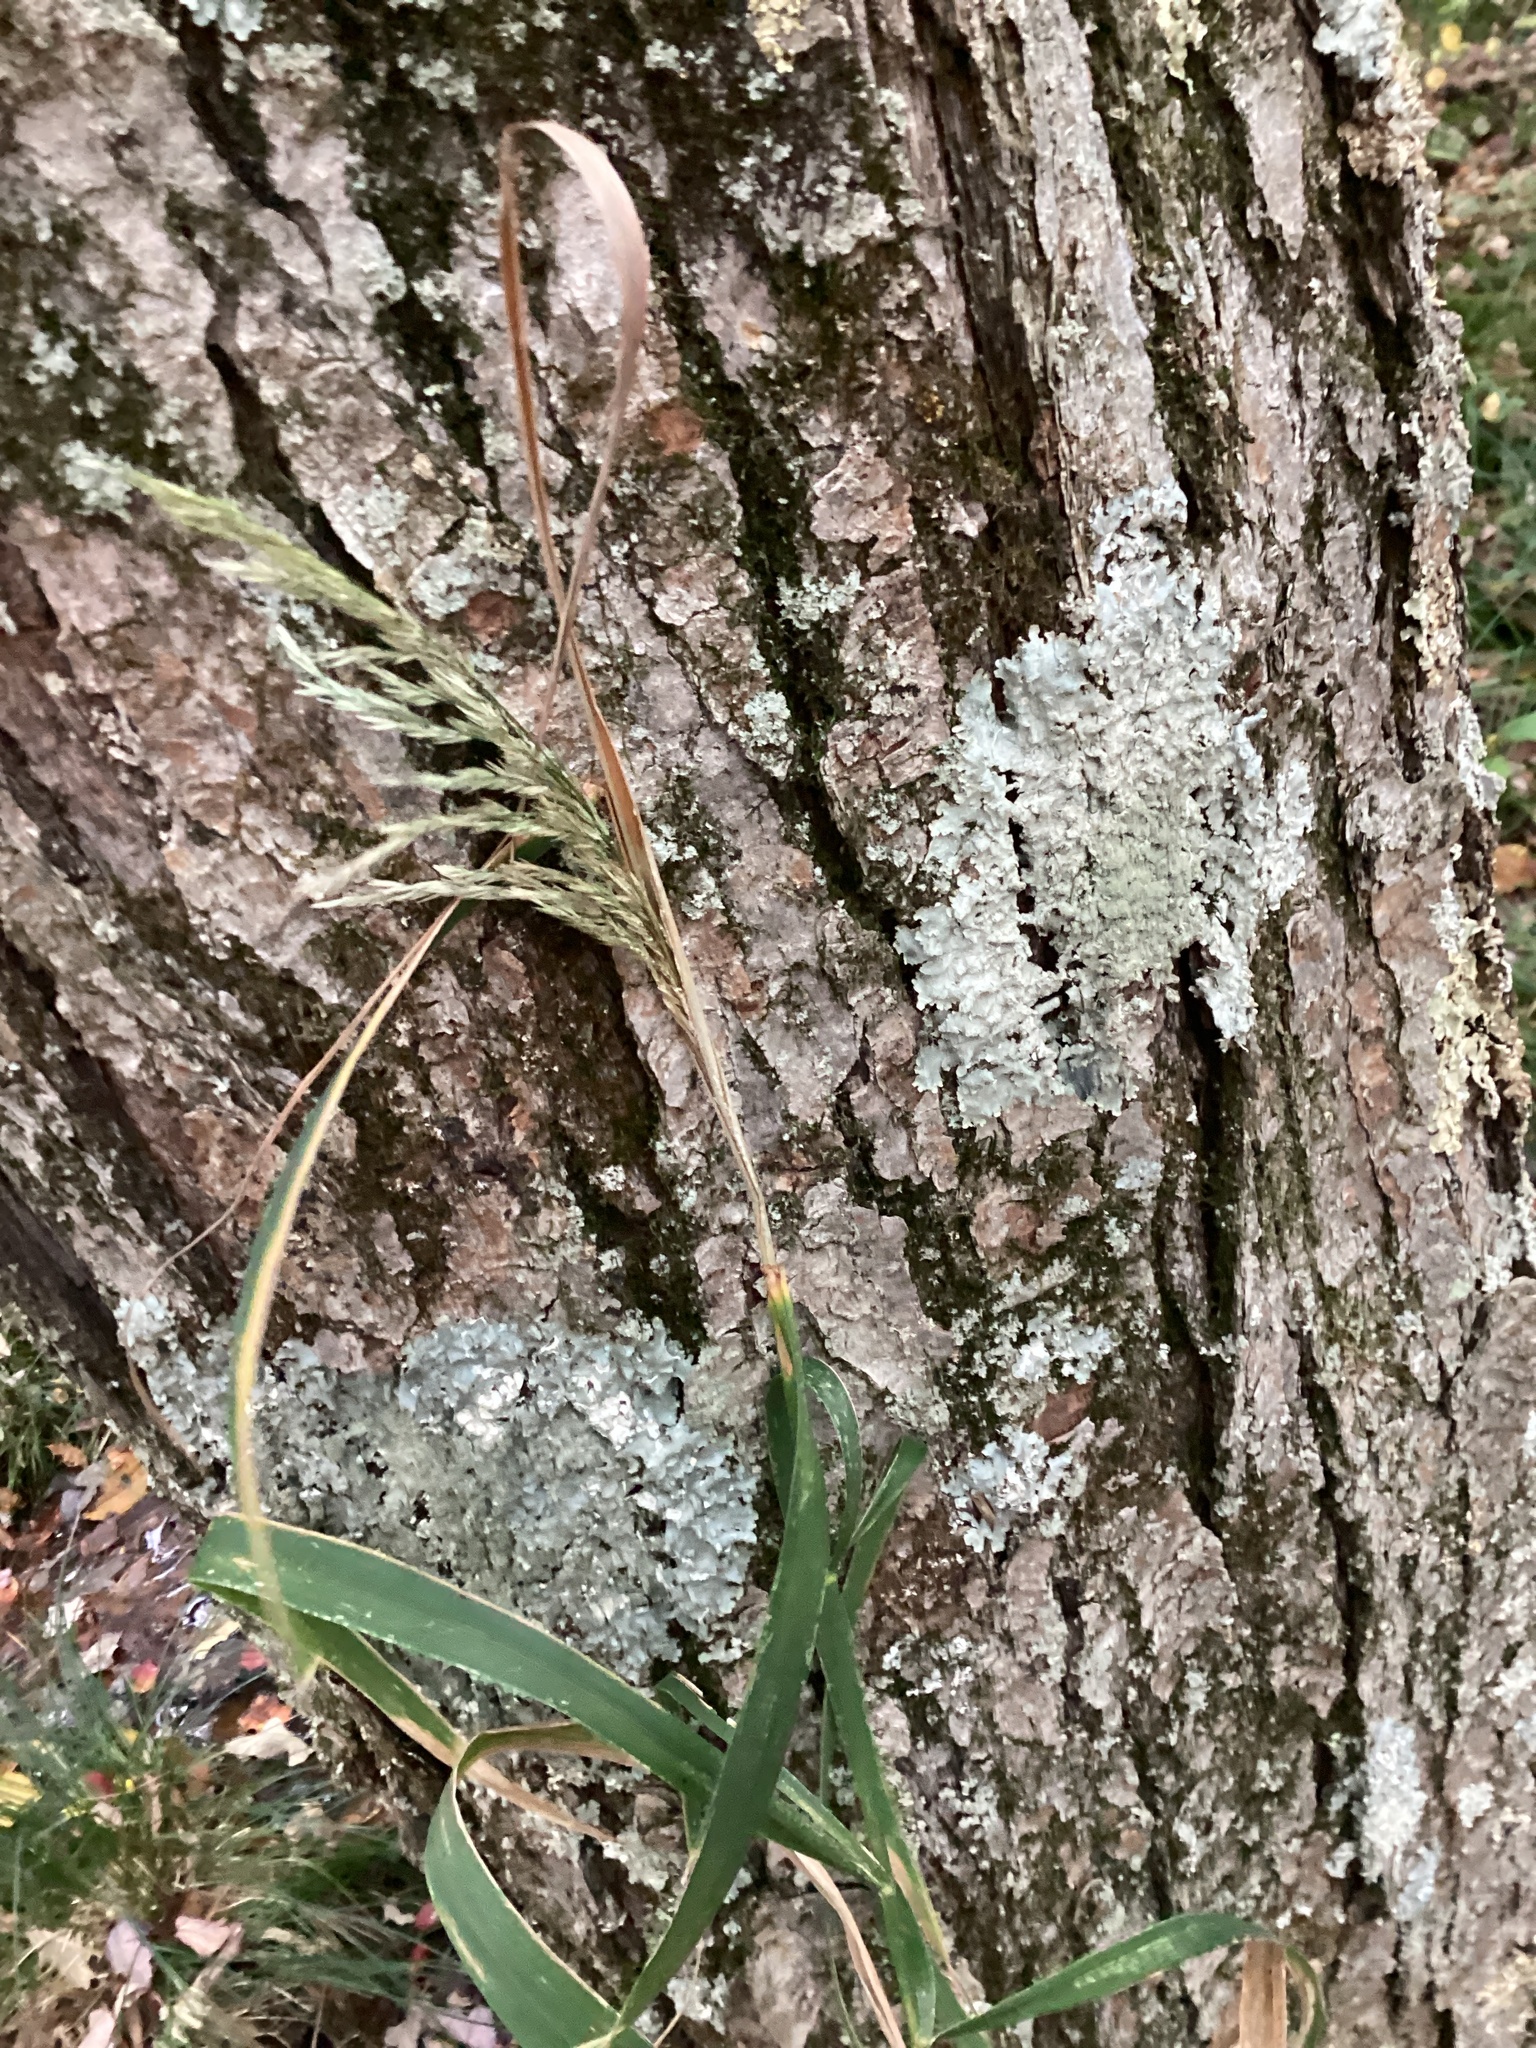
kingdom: Plantae
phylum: Tracheophyta
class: Liliopsida
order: Poales
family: Poaceae
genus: Phalaris
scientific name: Phalaris arundinacea
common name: Reed canary-grass
